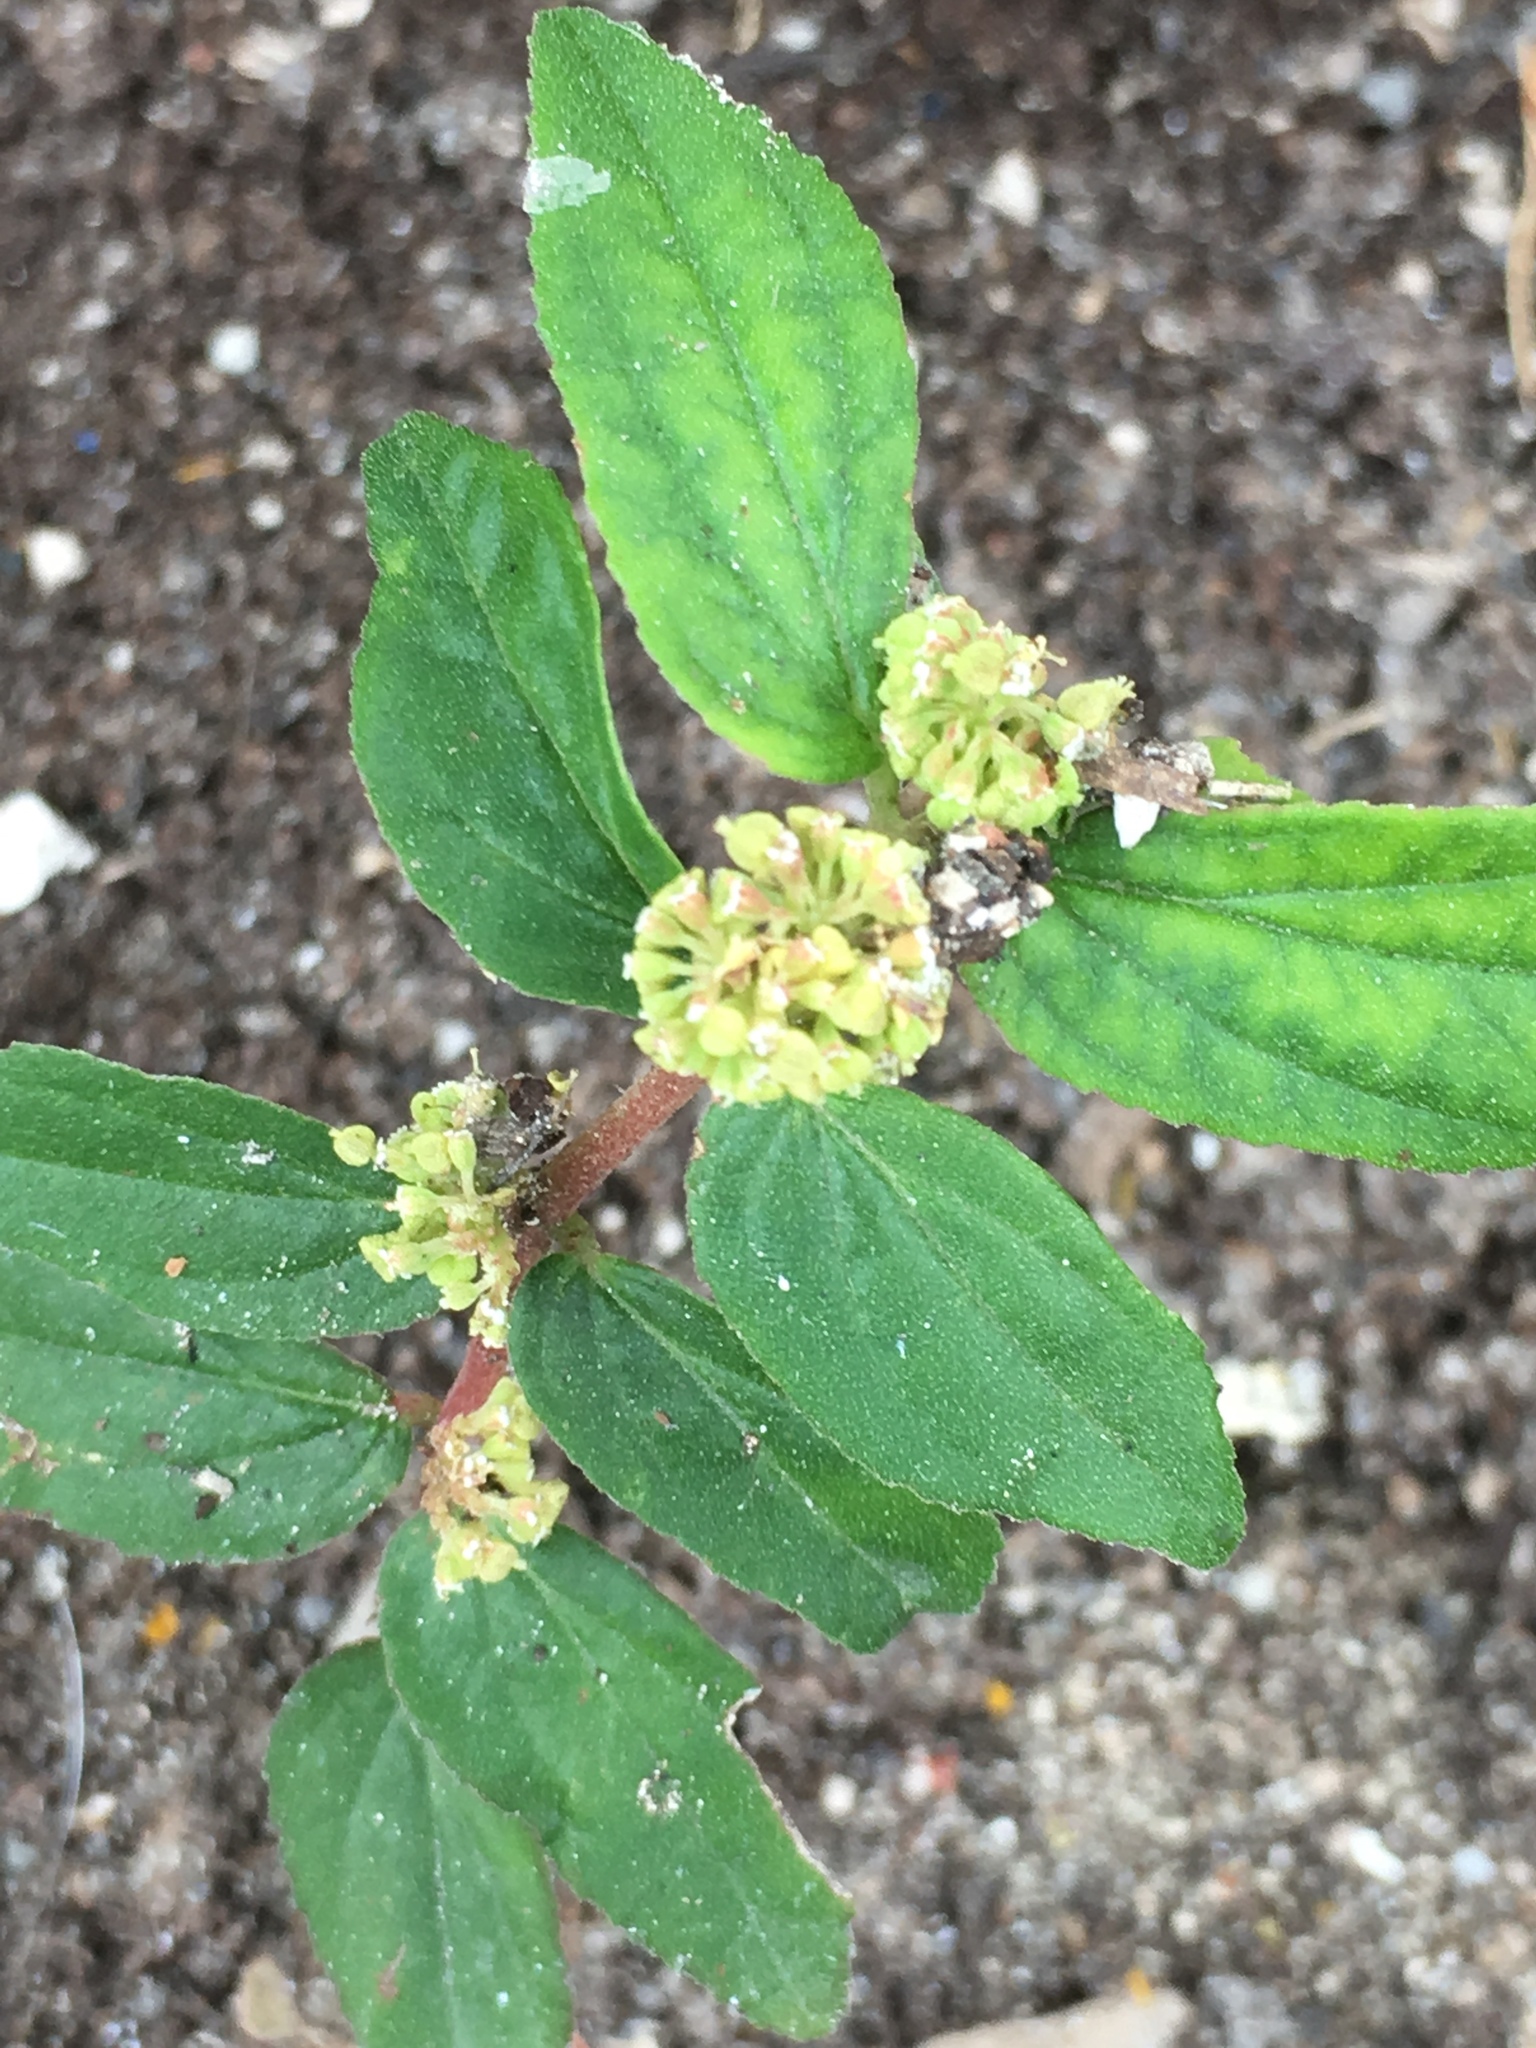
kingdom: Plantae
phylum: Tracheophyta
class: Magnoliopsida
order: Malpighiales
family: Euphorbiaceae
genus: Euphorbia
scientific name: Euphorbia hirta
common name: Pillpod sandmat
